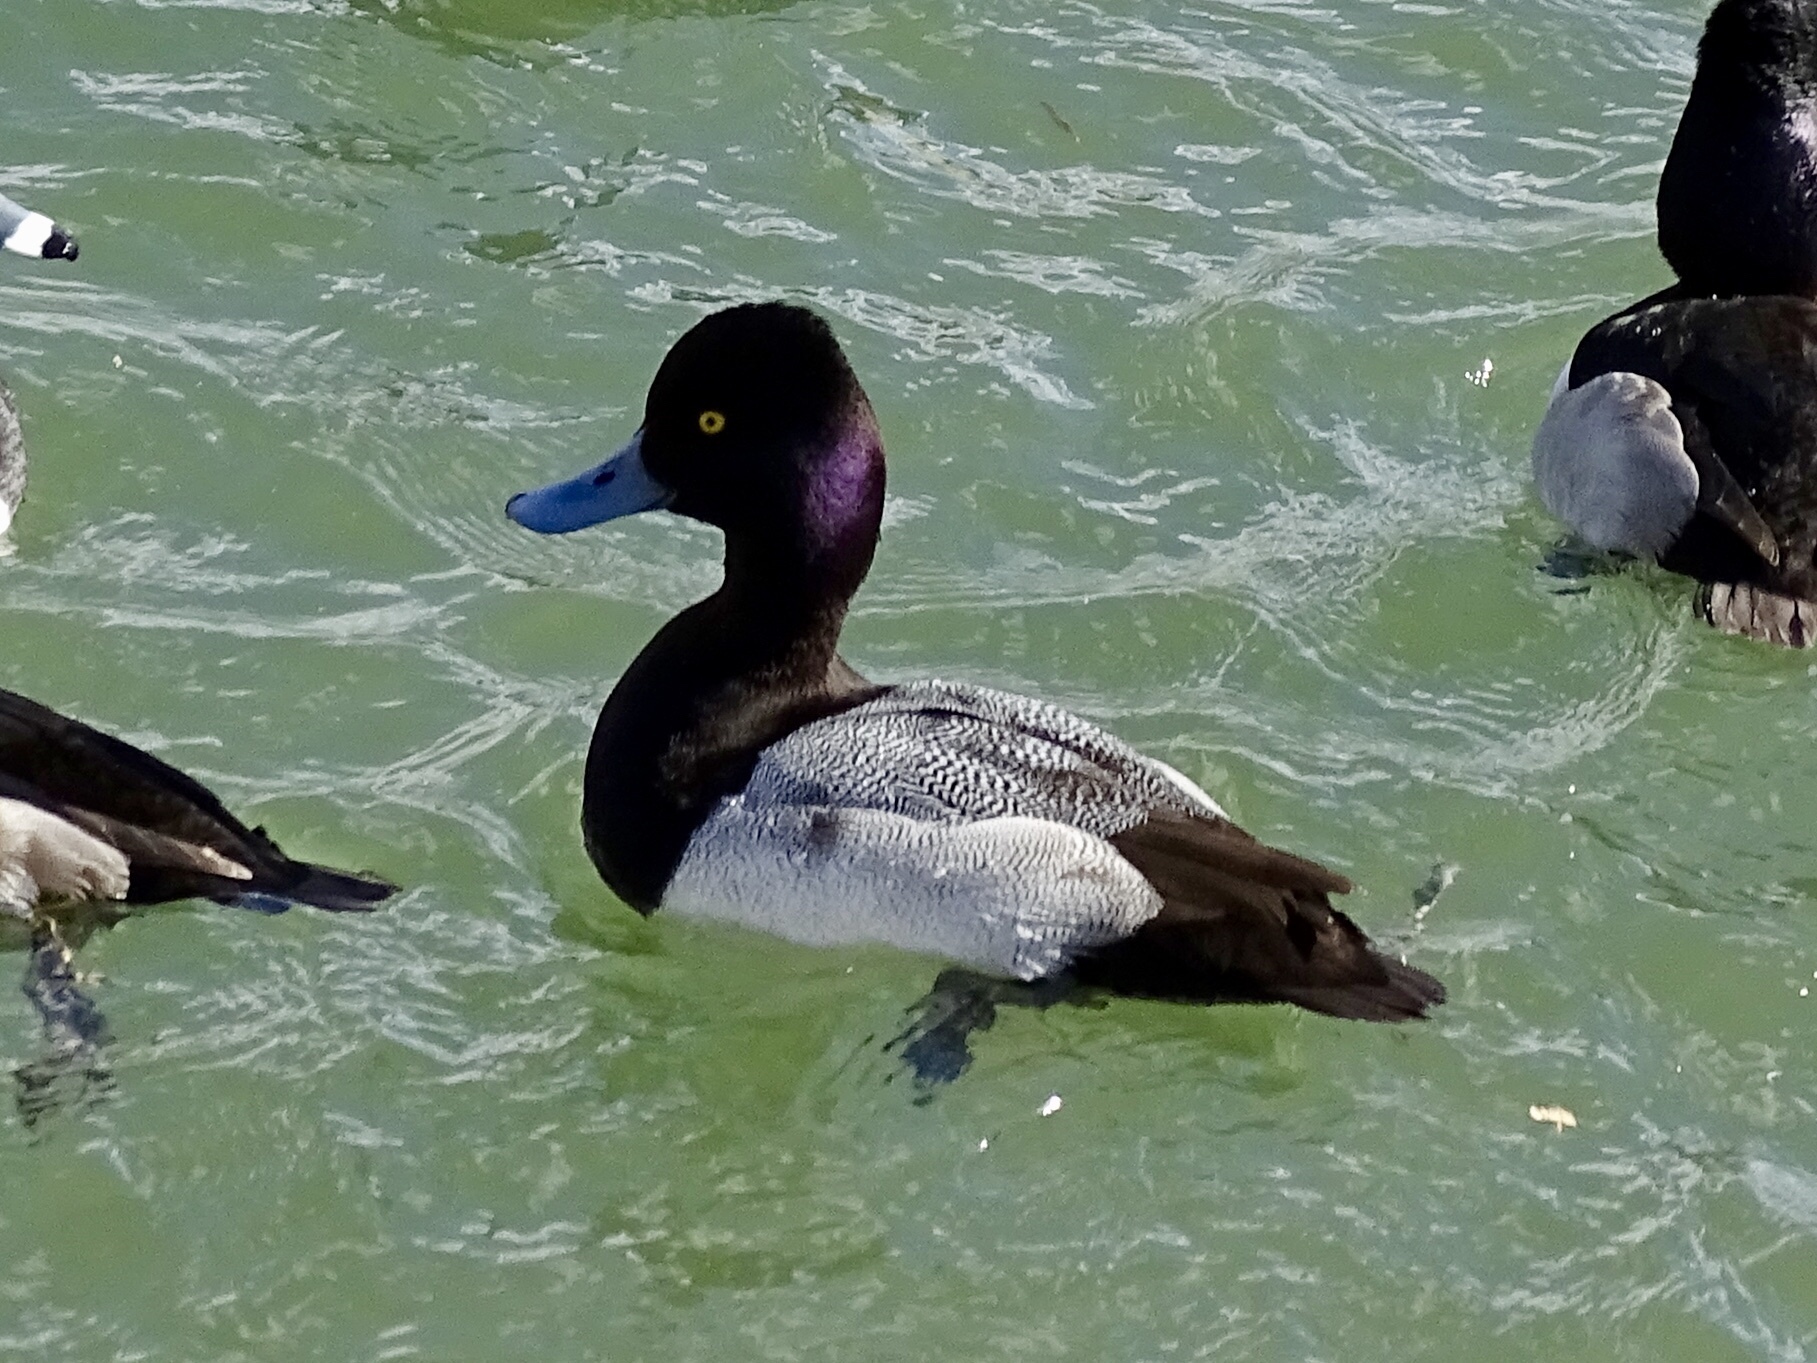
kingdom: Animalia
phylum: Chordata
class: Aves
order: Anseriformes
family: Anatidae
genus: Aythya
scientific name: Aythya affinis
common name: Lesser scaup
